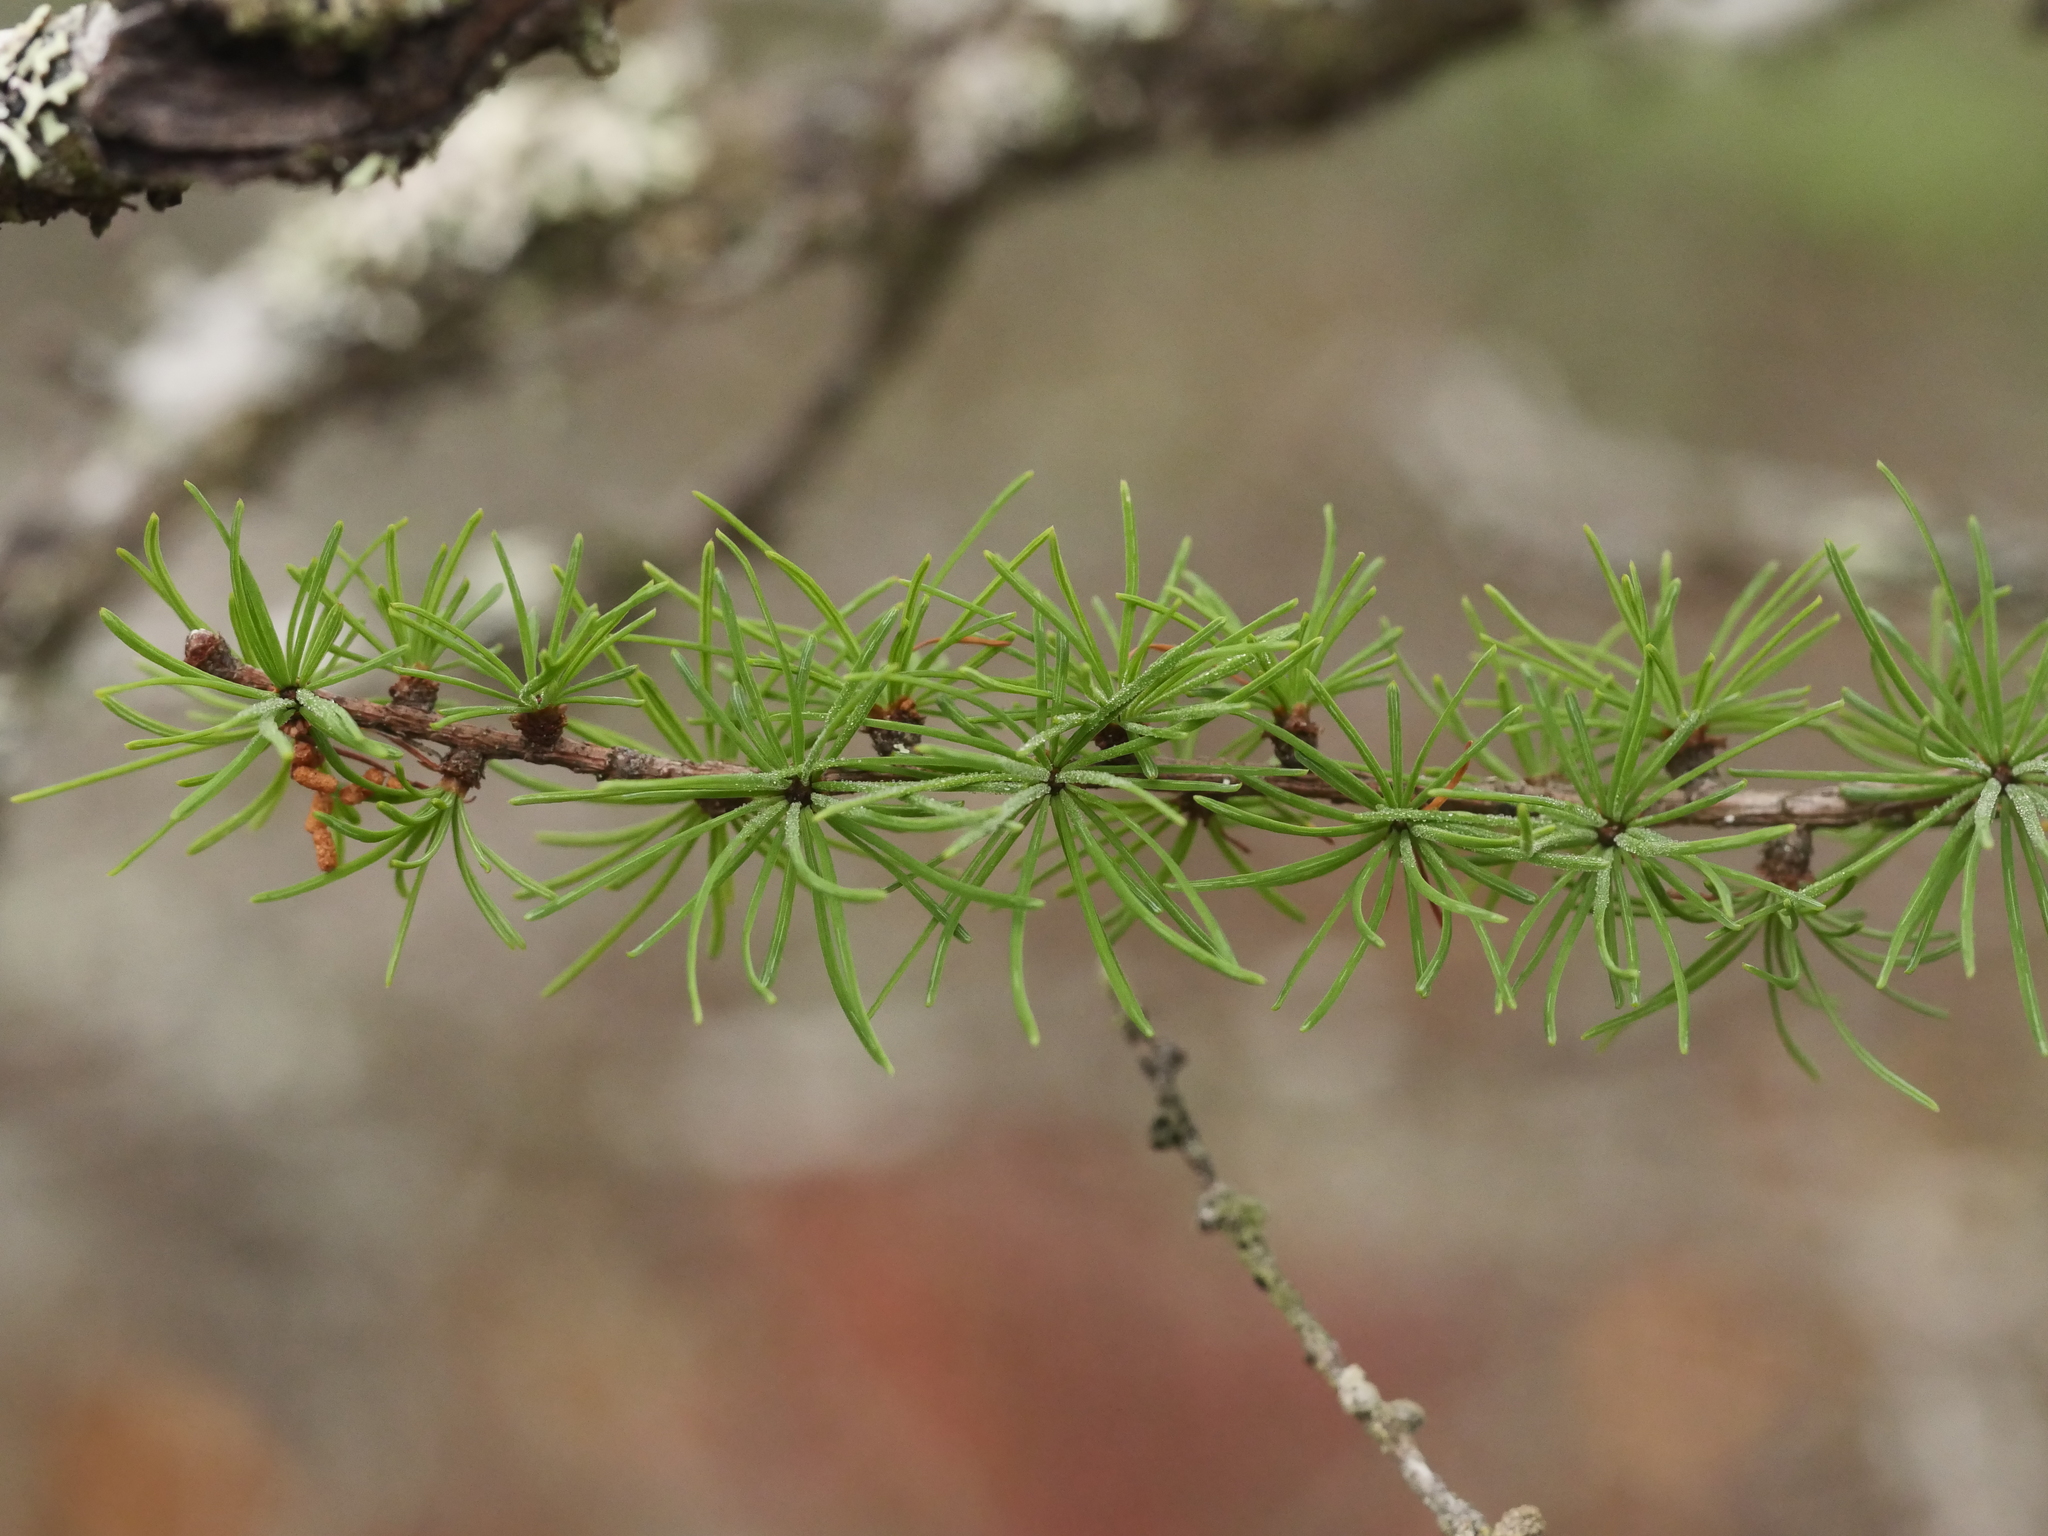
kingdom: Plantae
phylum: Tracheophyta
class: Pinopsida
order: Pinales
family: Pinaceae
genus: Larix
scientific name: Larix laricina
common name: American larch
